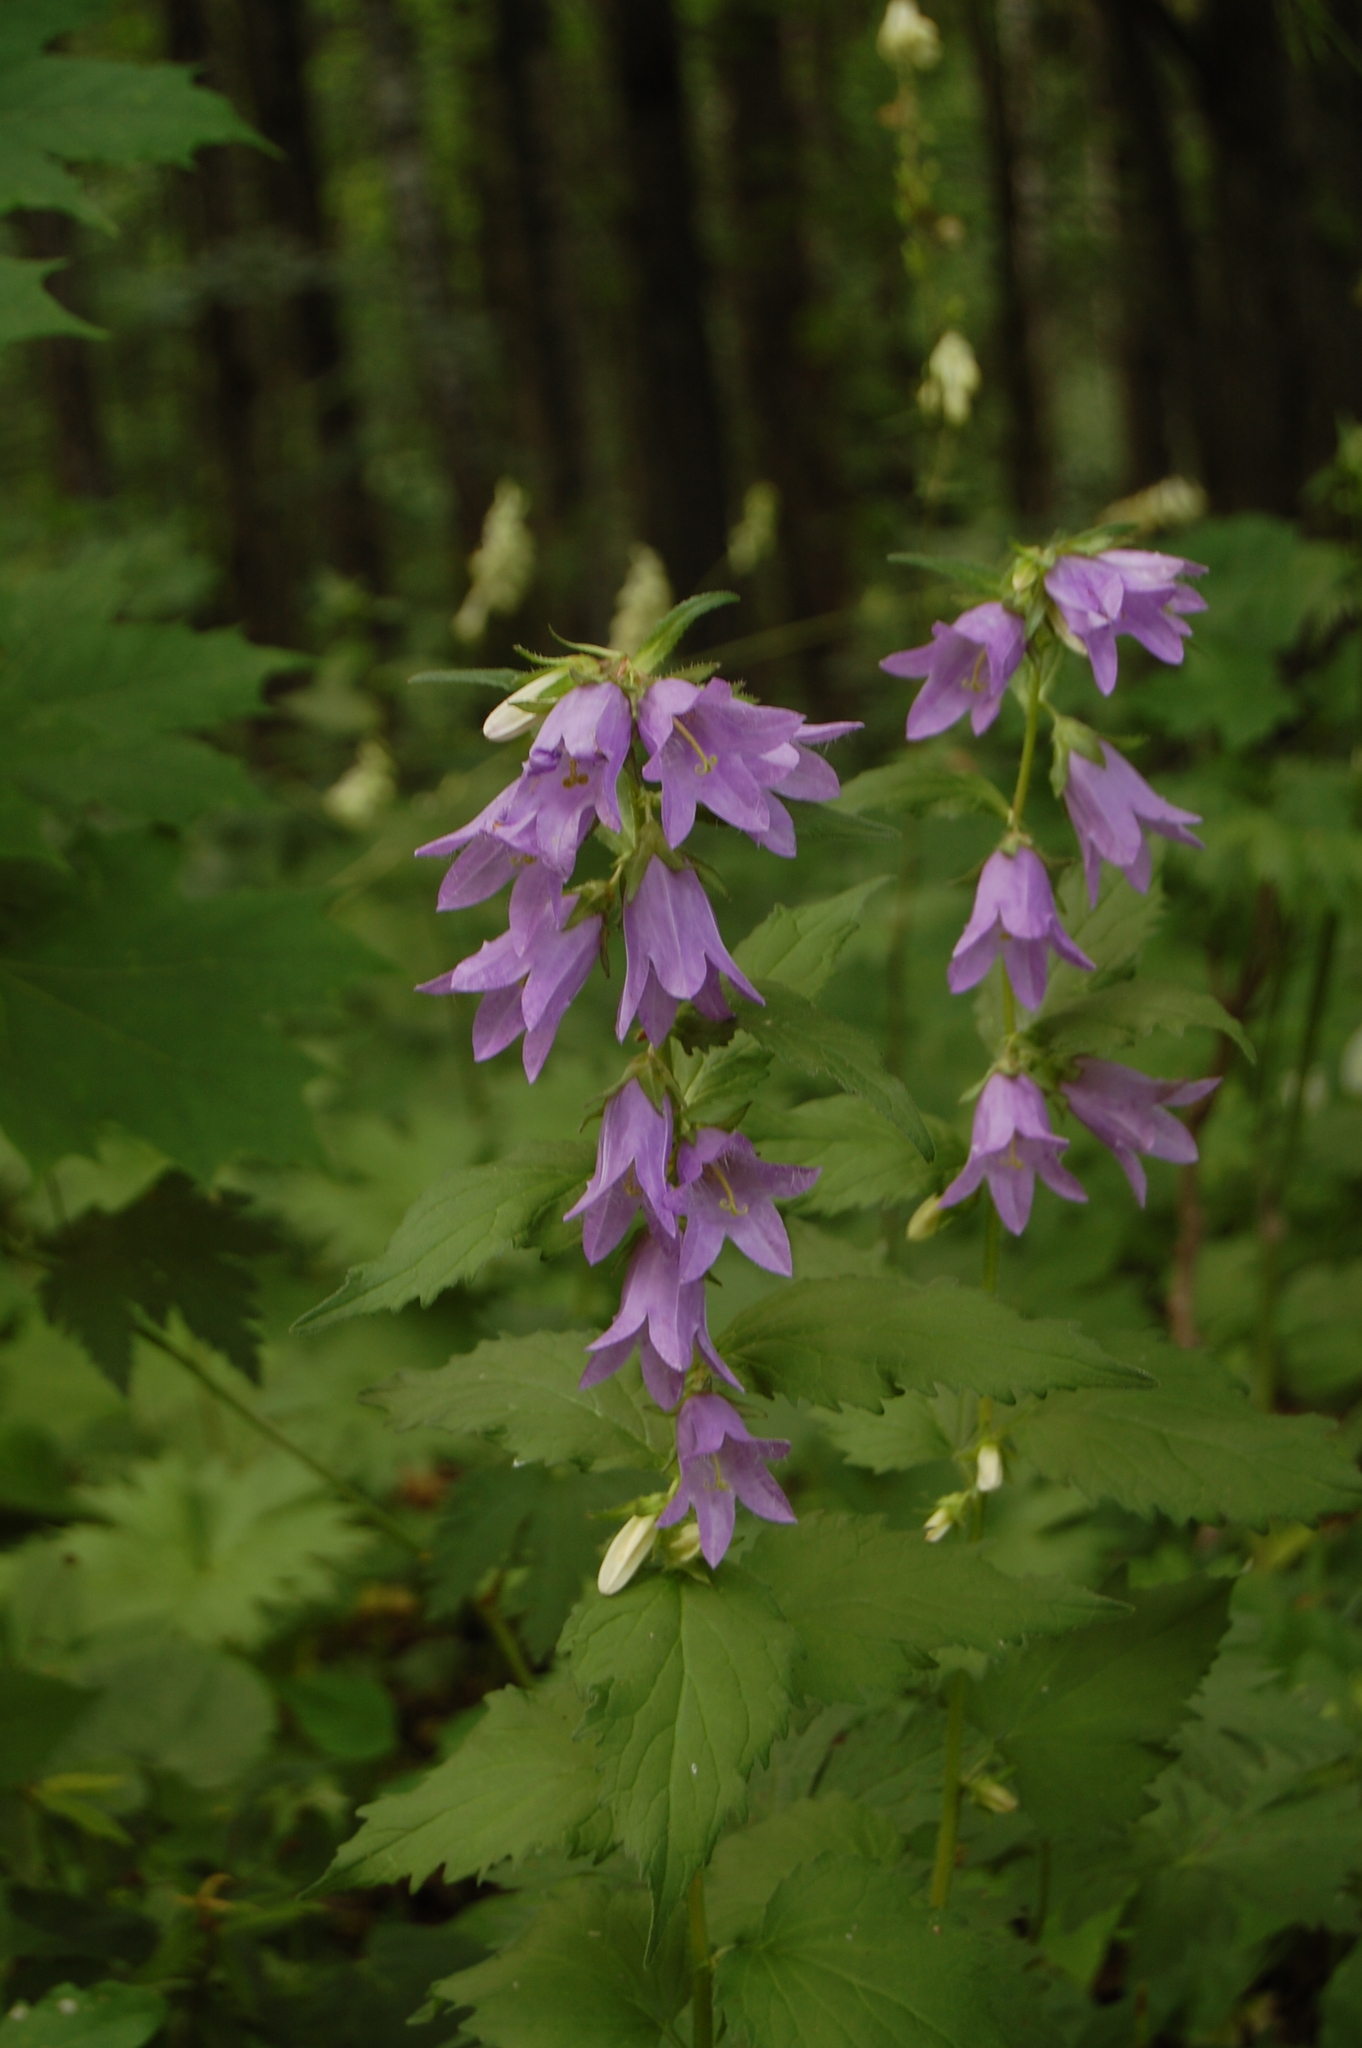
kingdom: Plantae
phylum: Tracheophyta
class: Magnoliopsida
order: Asterales
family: Campanulaceae
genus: Campanula
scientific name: Campanula trachelium
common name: Nettle-leaved bellflower
